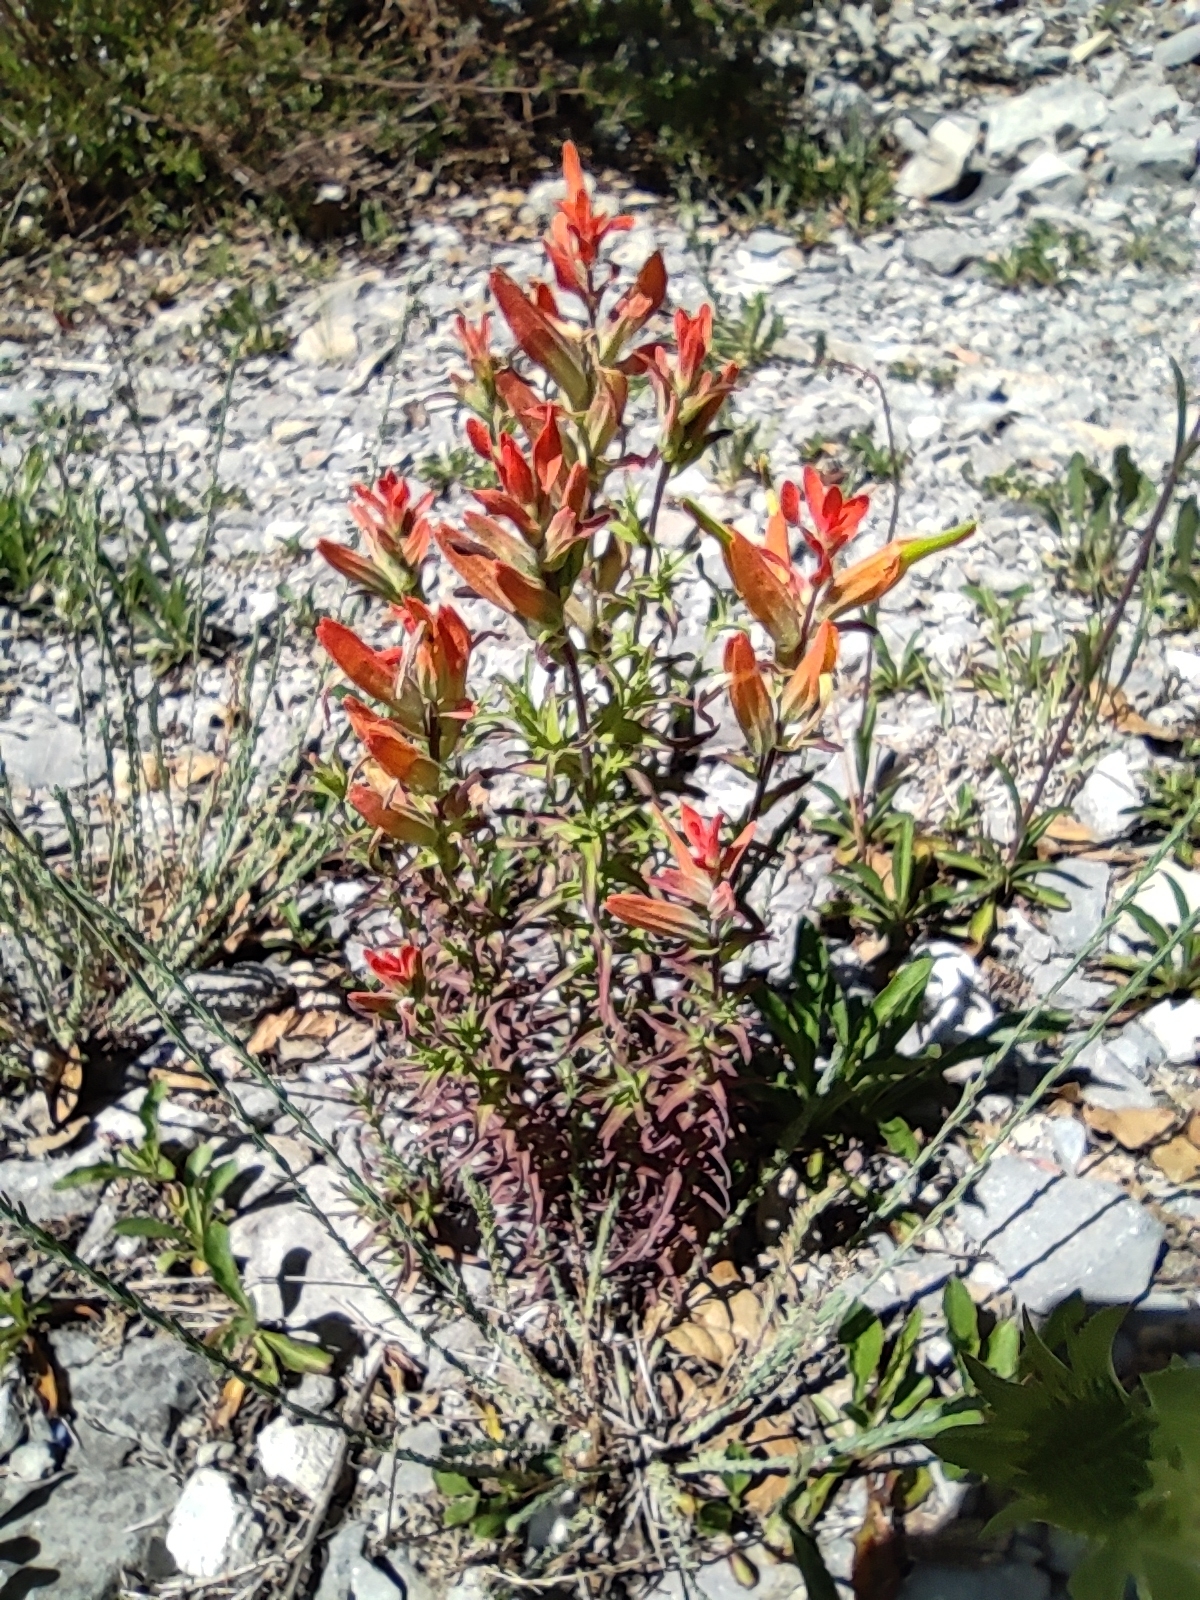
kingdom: Plantae
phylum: Tracheophyta
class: Magnoliopsida
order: Lamiales
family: Orobanchaceae
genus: Castilleja
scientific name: Castilleja integrifolia
